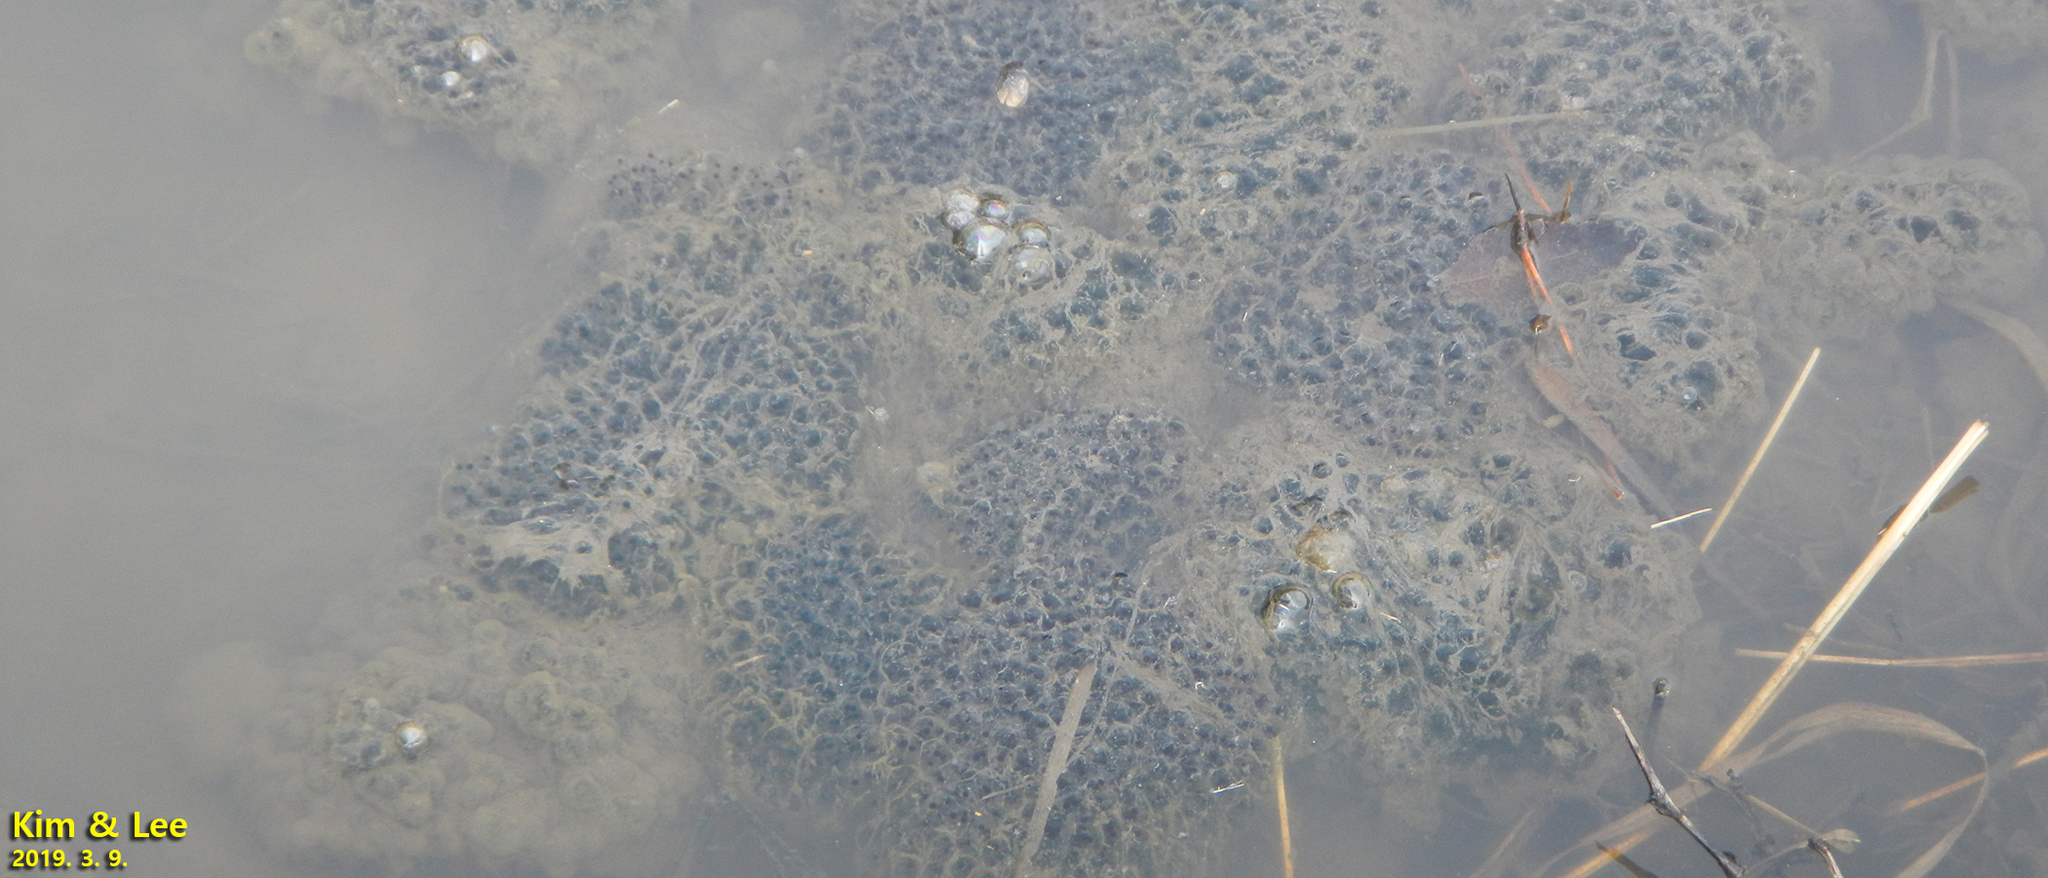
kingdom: Animalia
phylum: Chordata
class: Amphibia
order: Anura
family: Ranidae
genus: Rana
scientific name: Rana uenoi
